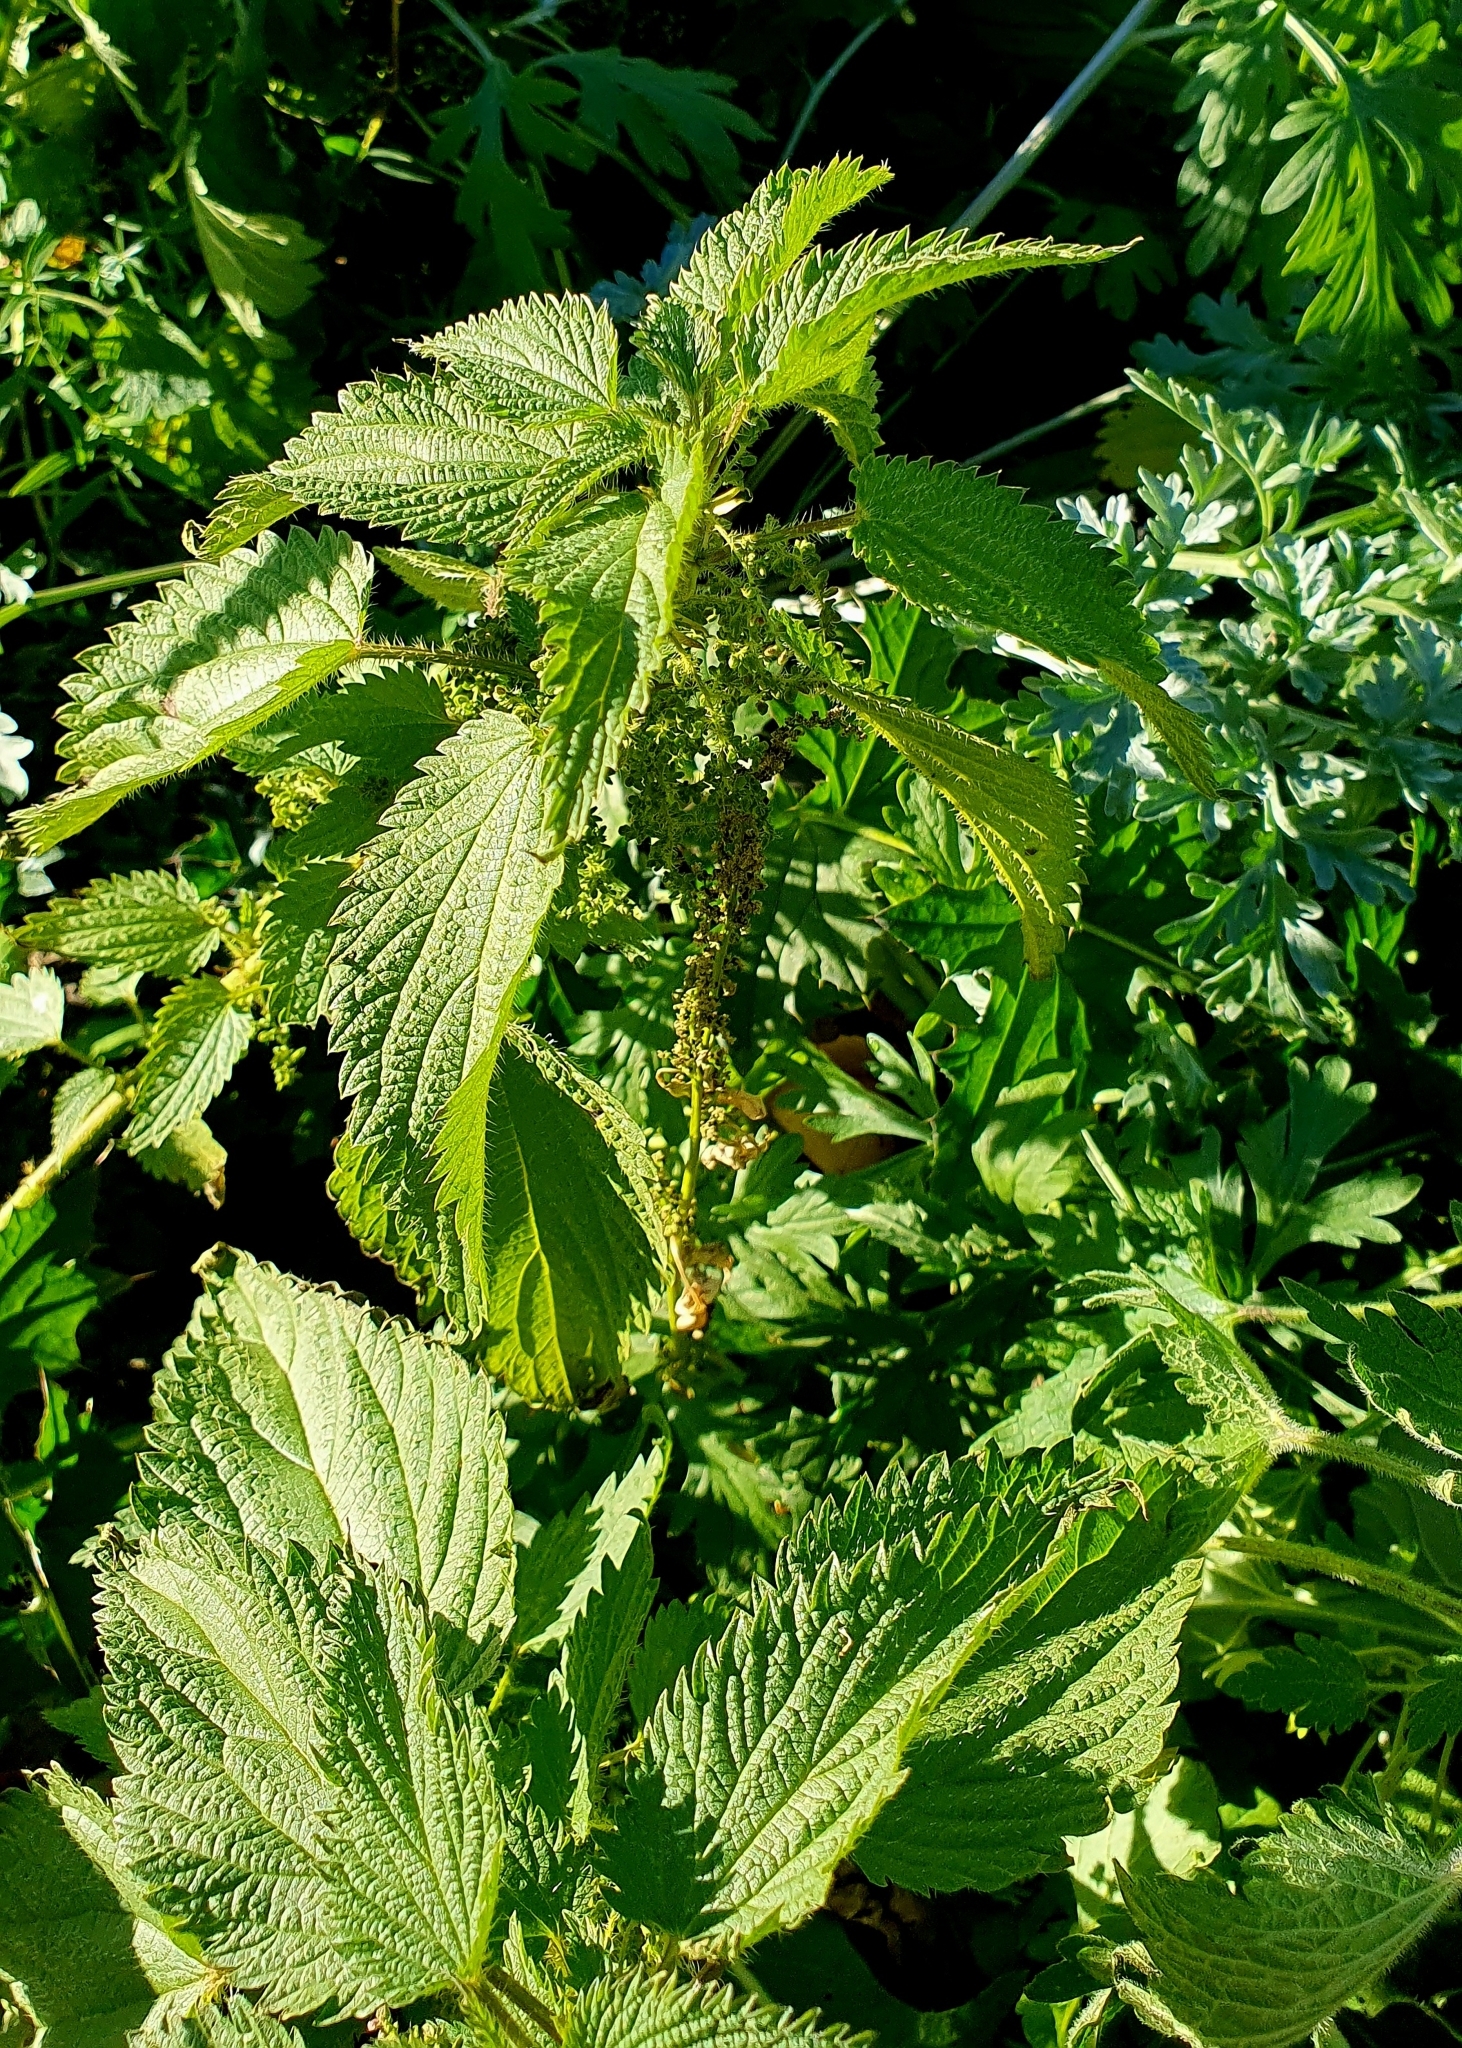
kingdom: Plantae
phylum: Tracheophyta
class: Magnoliopsida
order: Rosales
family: Urticaceae
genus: Urtica
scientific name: Urtica dioica
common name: Common nettle
